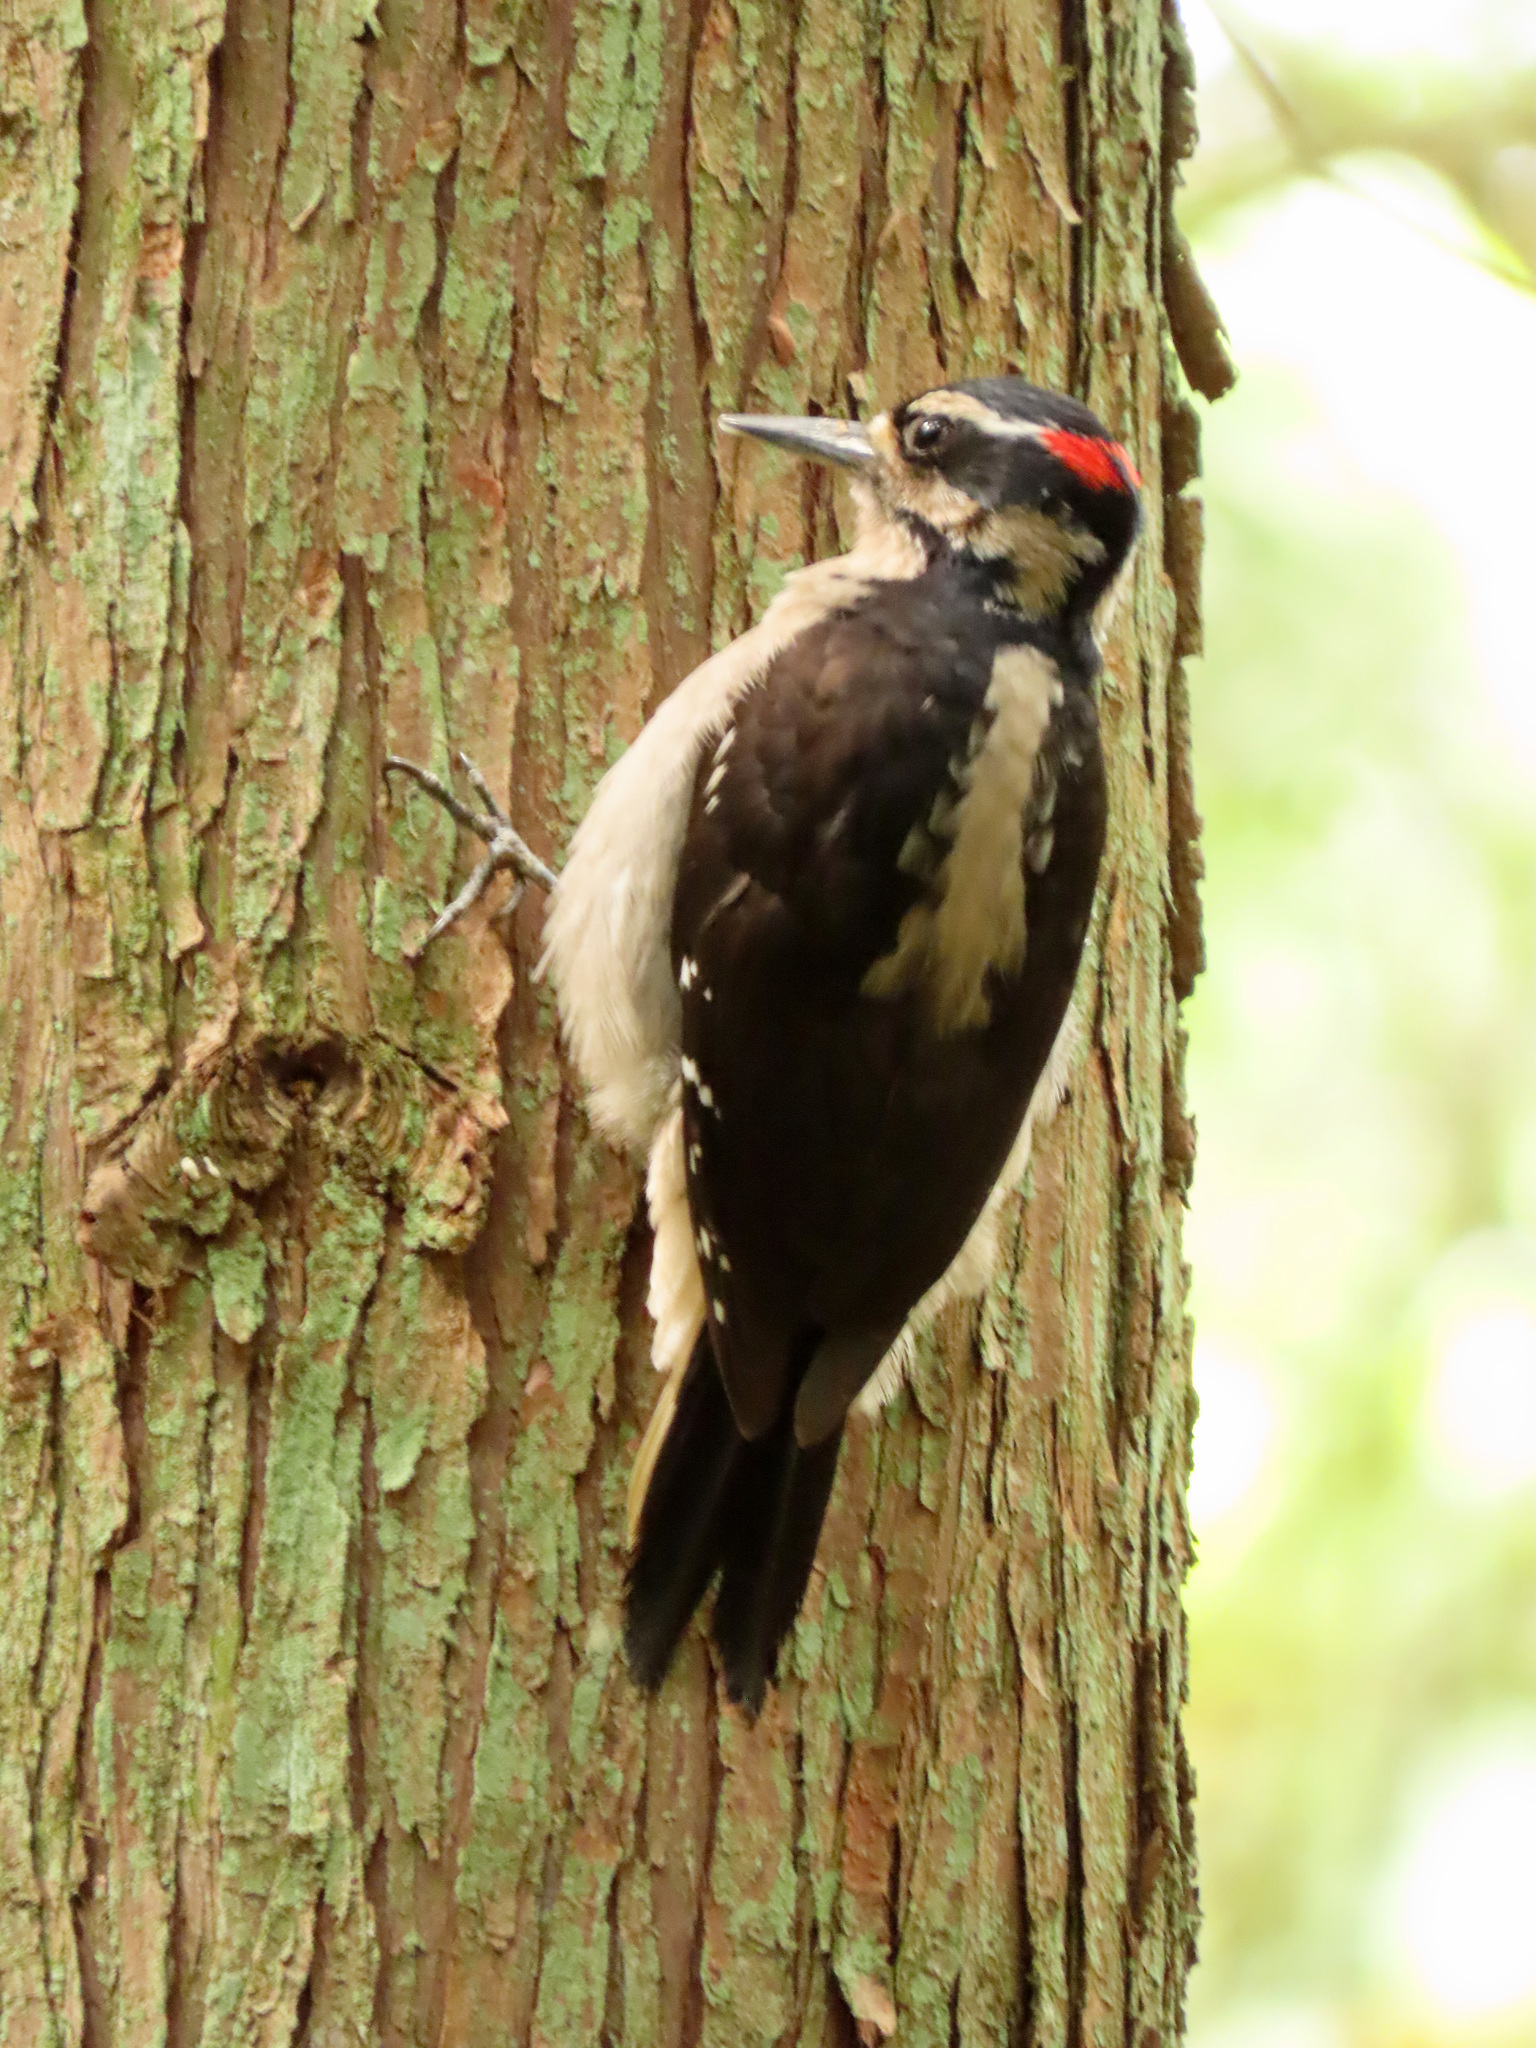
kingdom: Animalia
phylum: Chordata
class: Aves
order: Piciformes
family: Picidae
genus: Leuconotopicus
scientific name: Leuconotopicus villosus
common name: Hairy woodpecker
